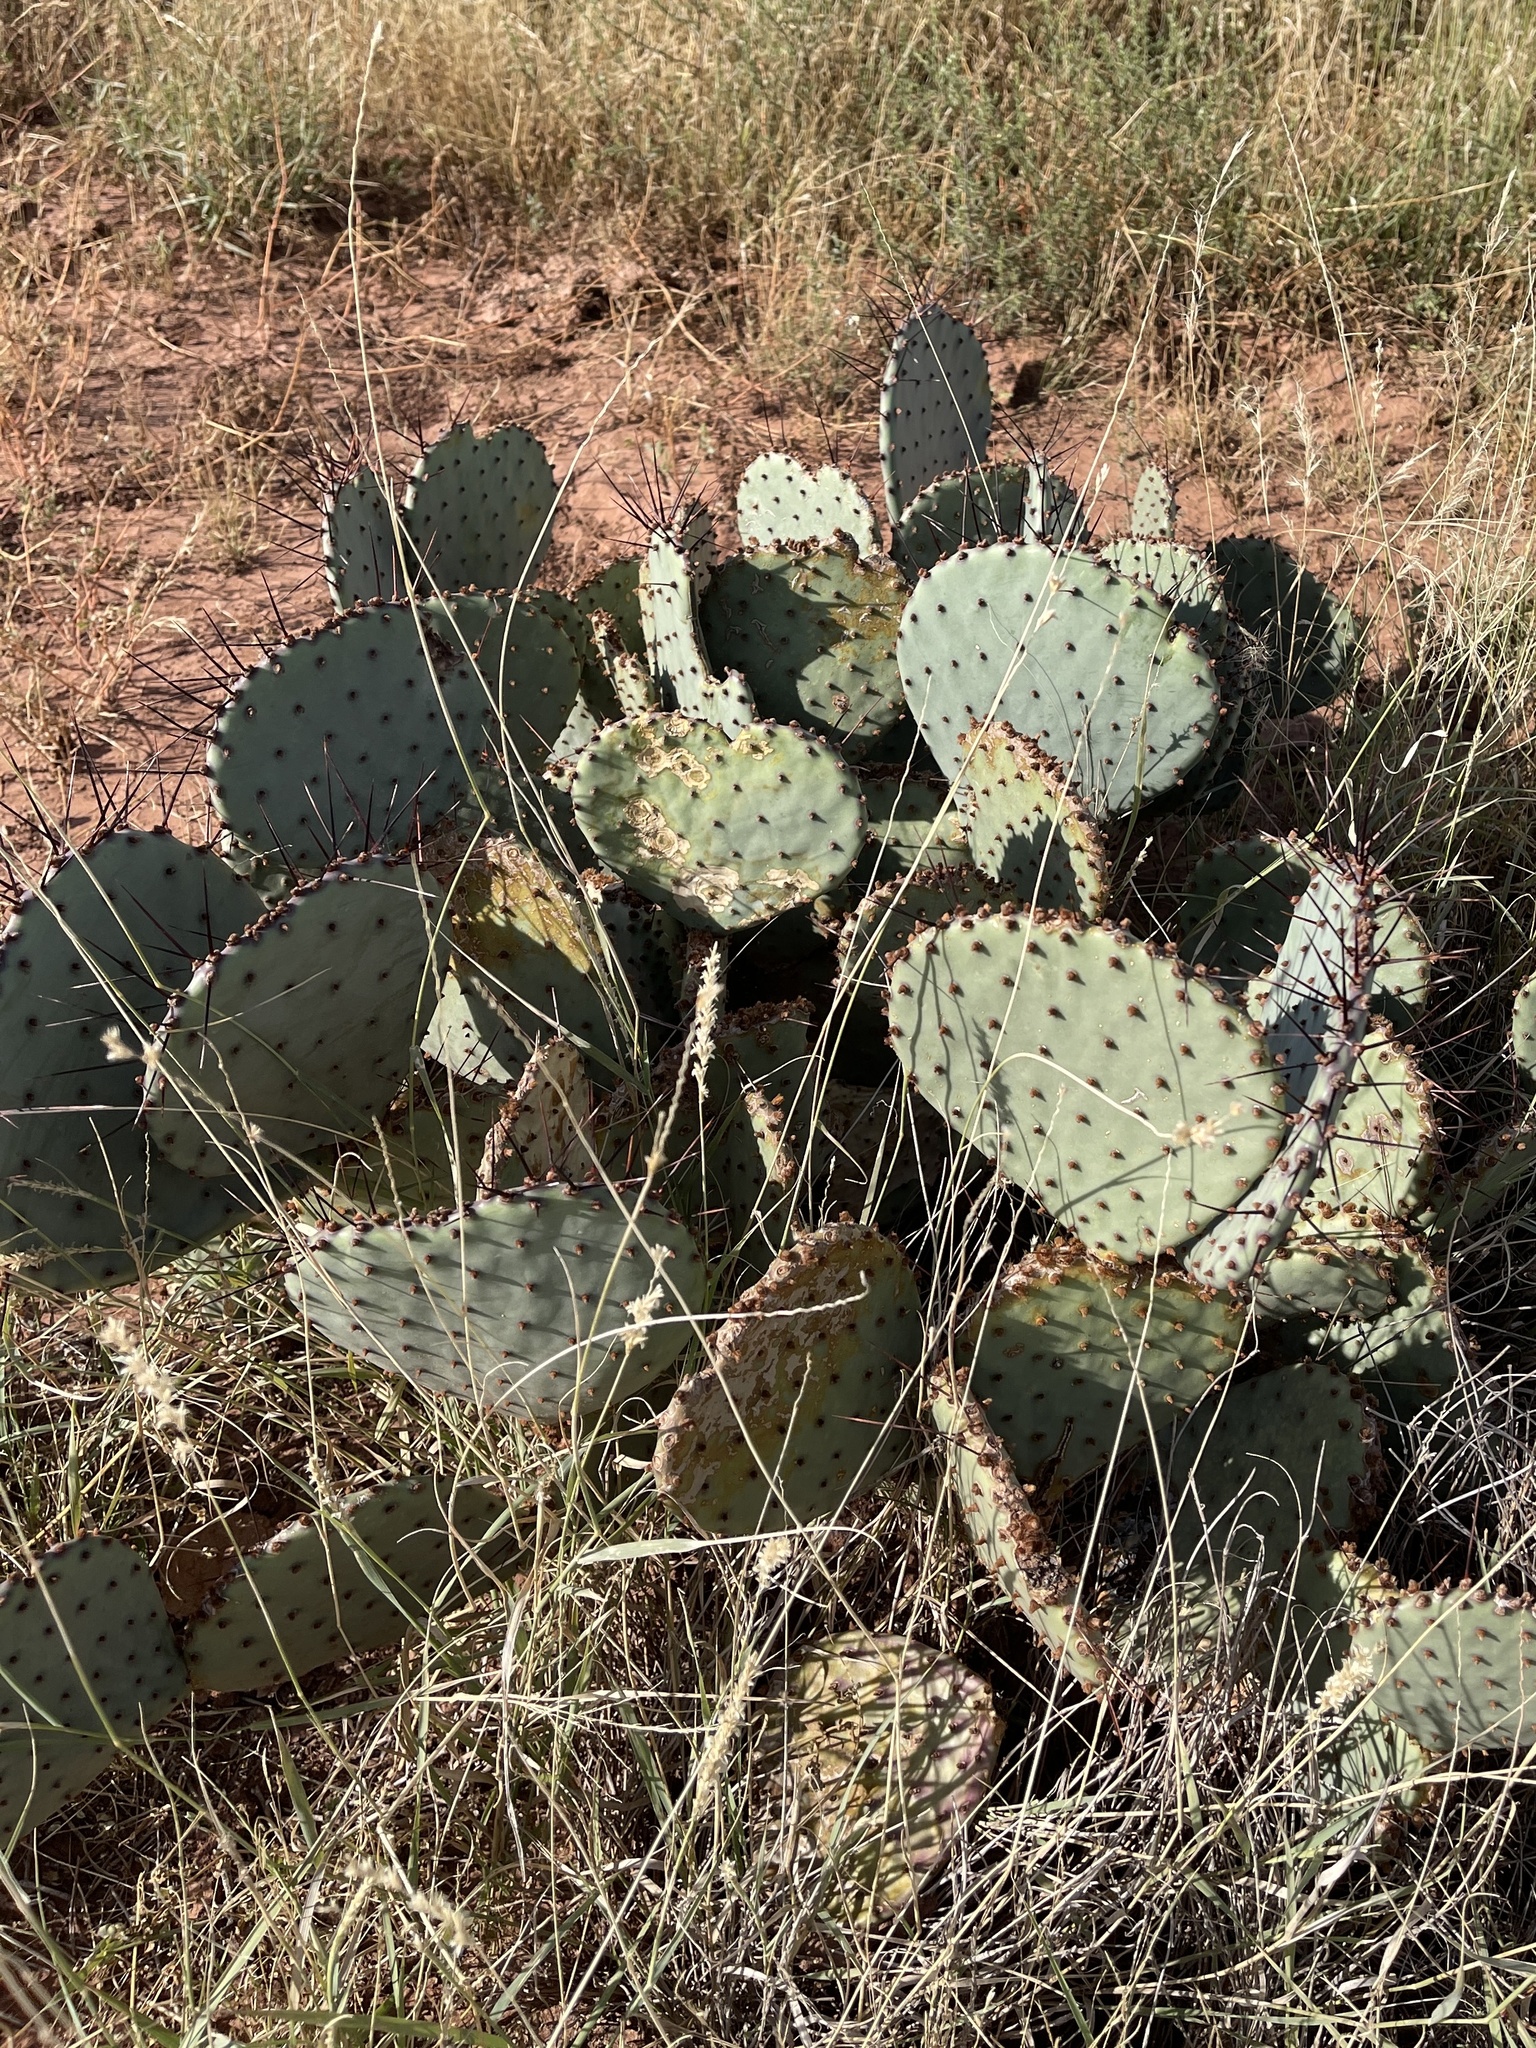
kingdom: Plantae
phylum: Tracheophyta
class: Magnoliopsida
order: Caryophyllales
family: Cactaceae
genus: Opuntia
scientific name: Opuntia macrocentra
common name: Purple prickly-pear
